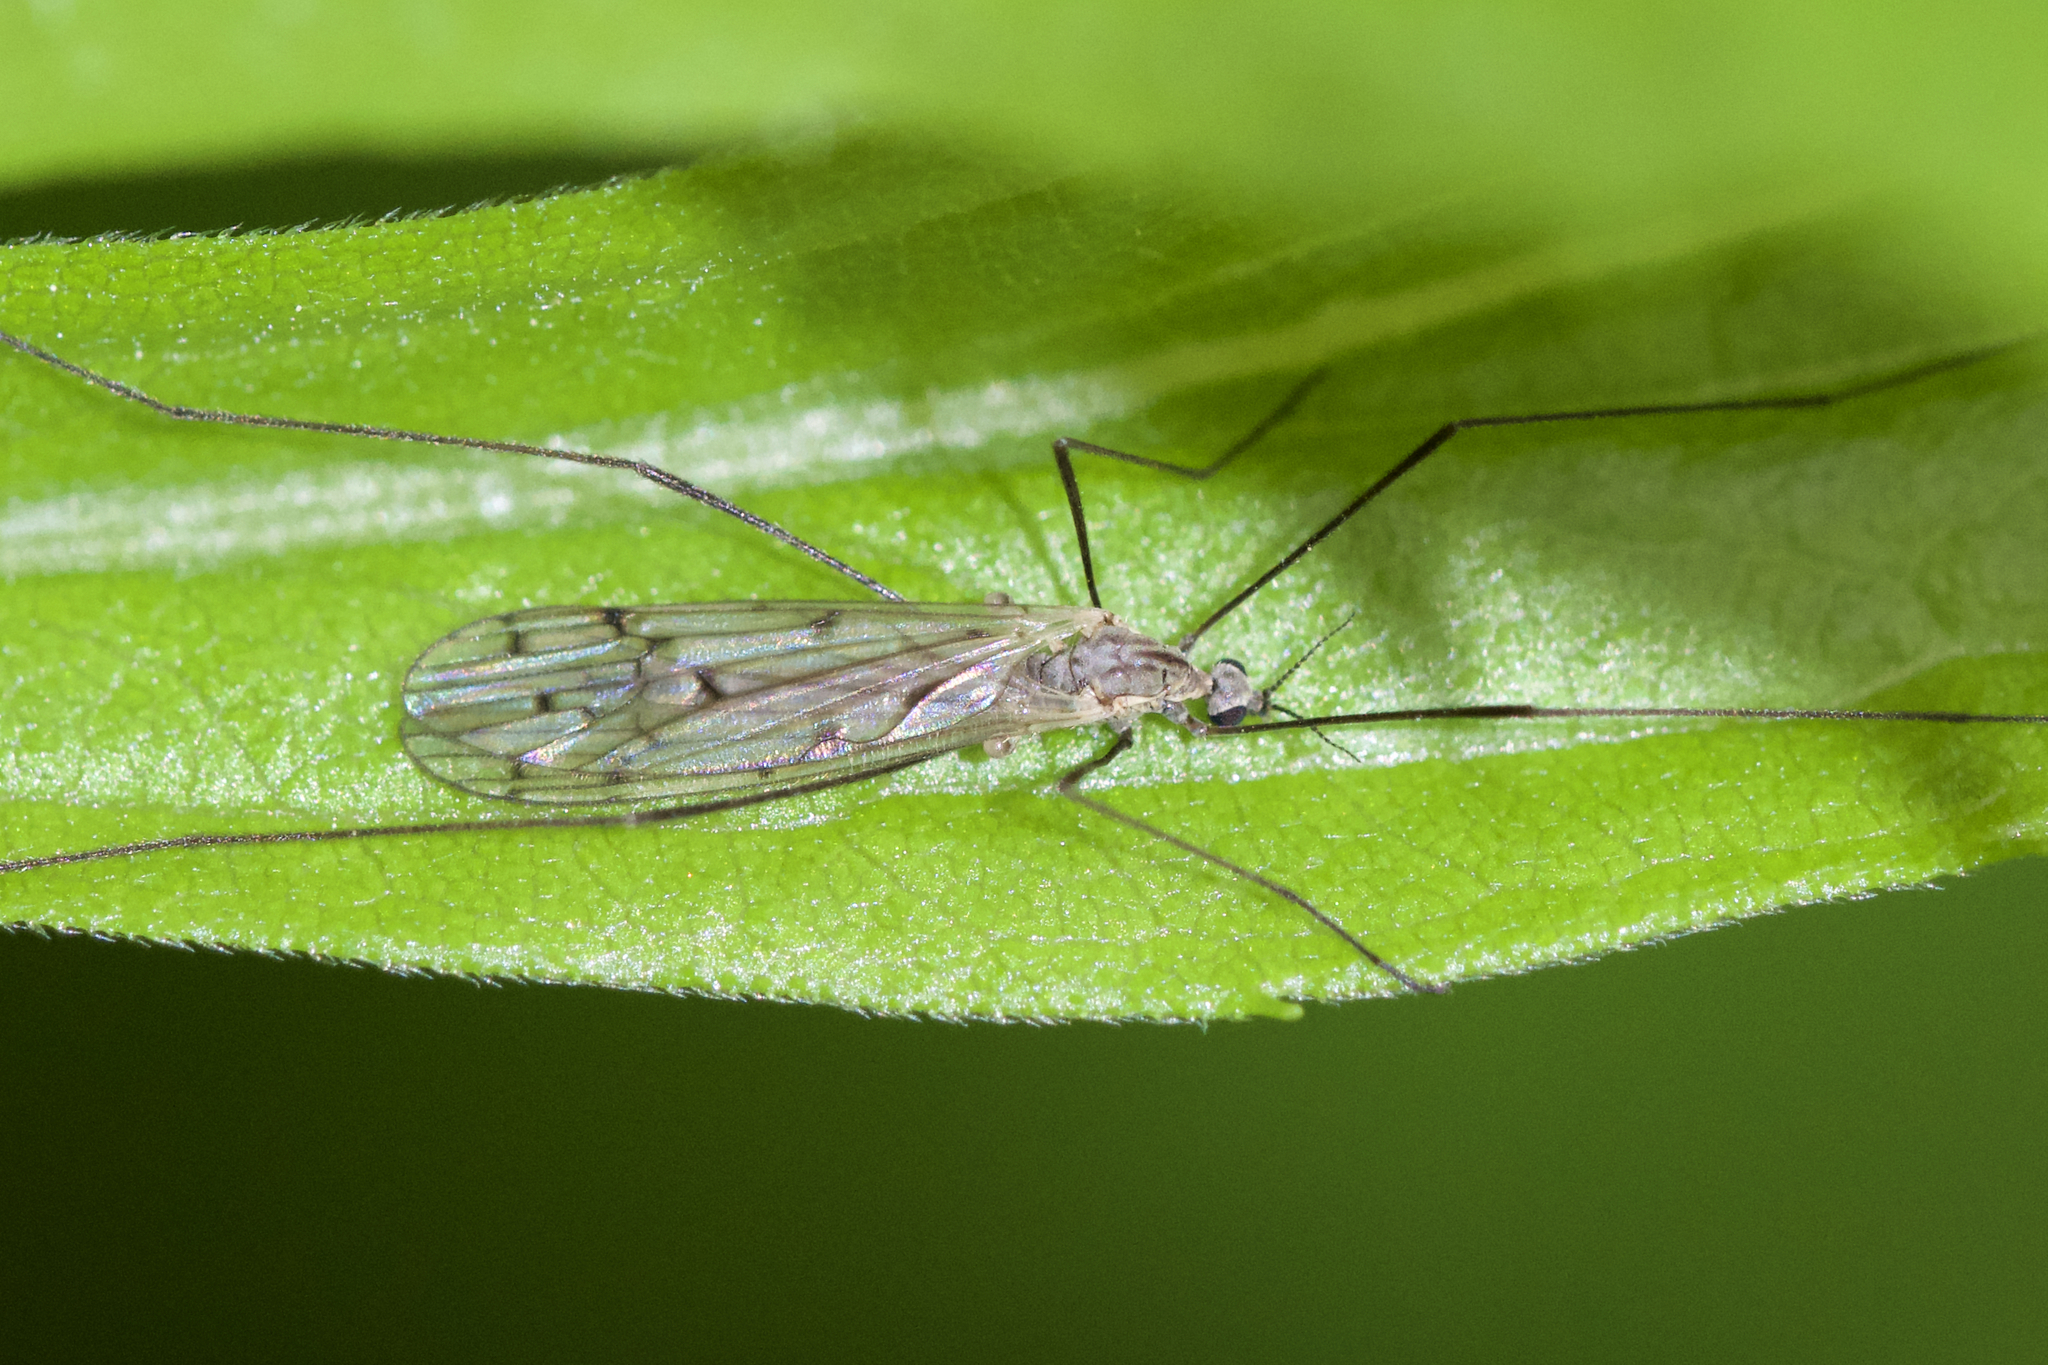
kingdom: Animalia
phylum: Arthropoda
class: Insecta
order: Diptera
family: Limoniidae
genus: Symplecta
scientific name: Symplecta cana
